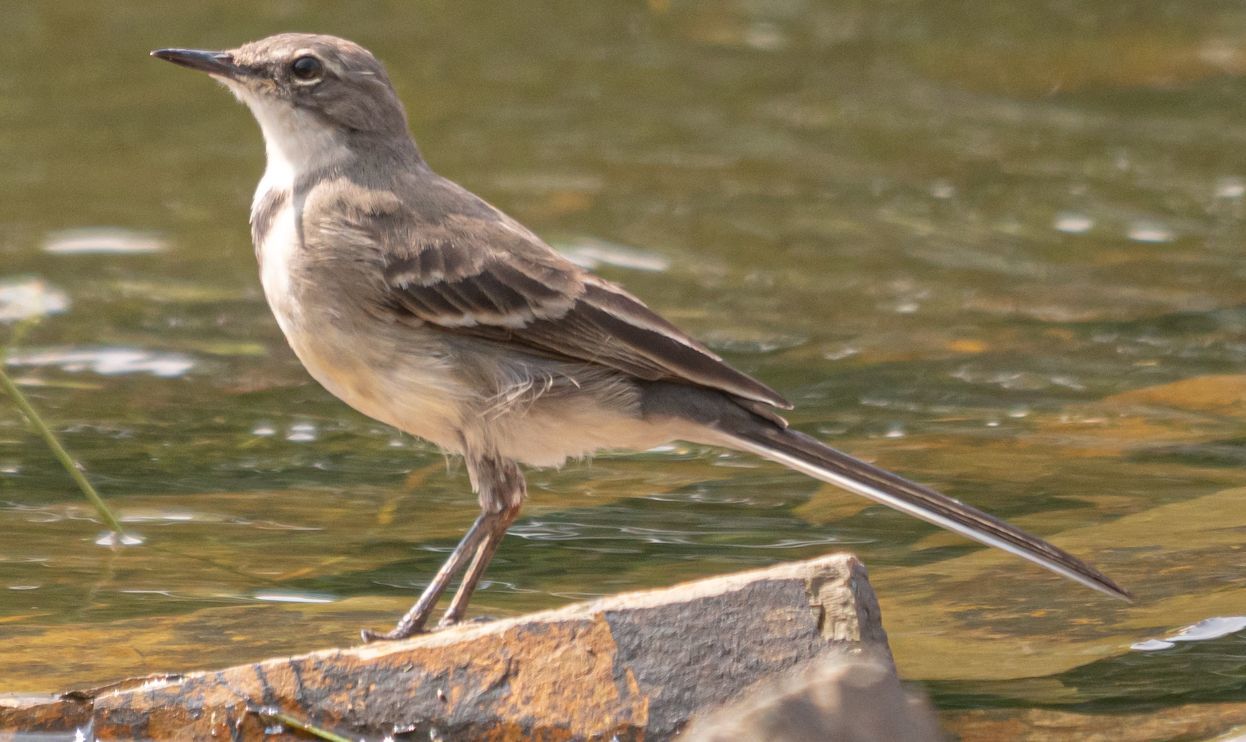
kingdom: Animalia
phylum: Chordata
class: Aves
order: Passeriformes
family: Motacillidae
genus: Motacilla
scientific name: Motacilla capensis
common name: Cape wagtail
